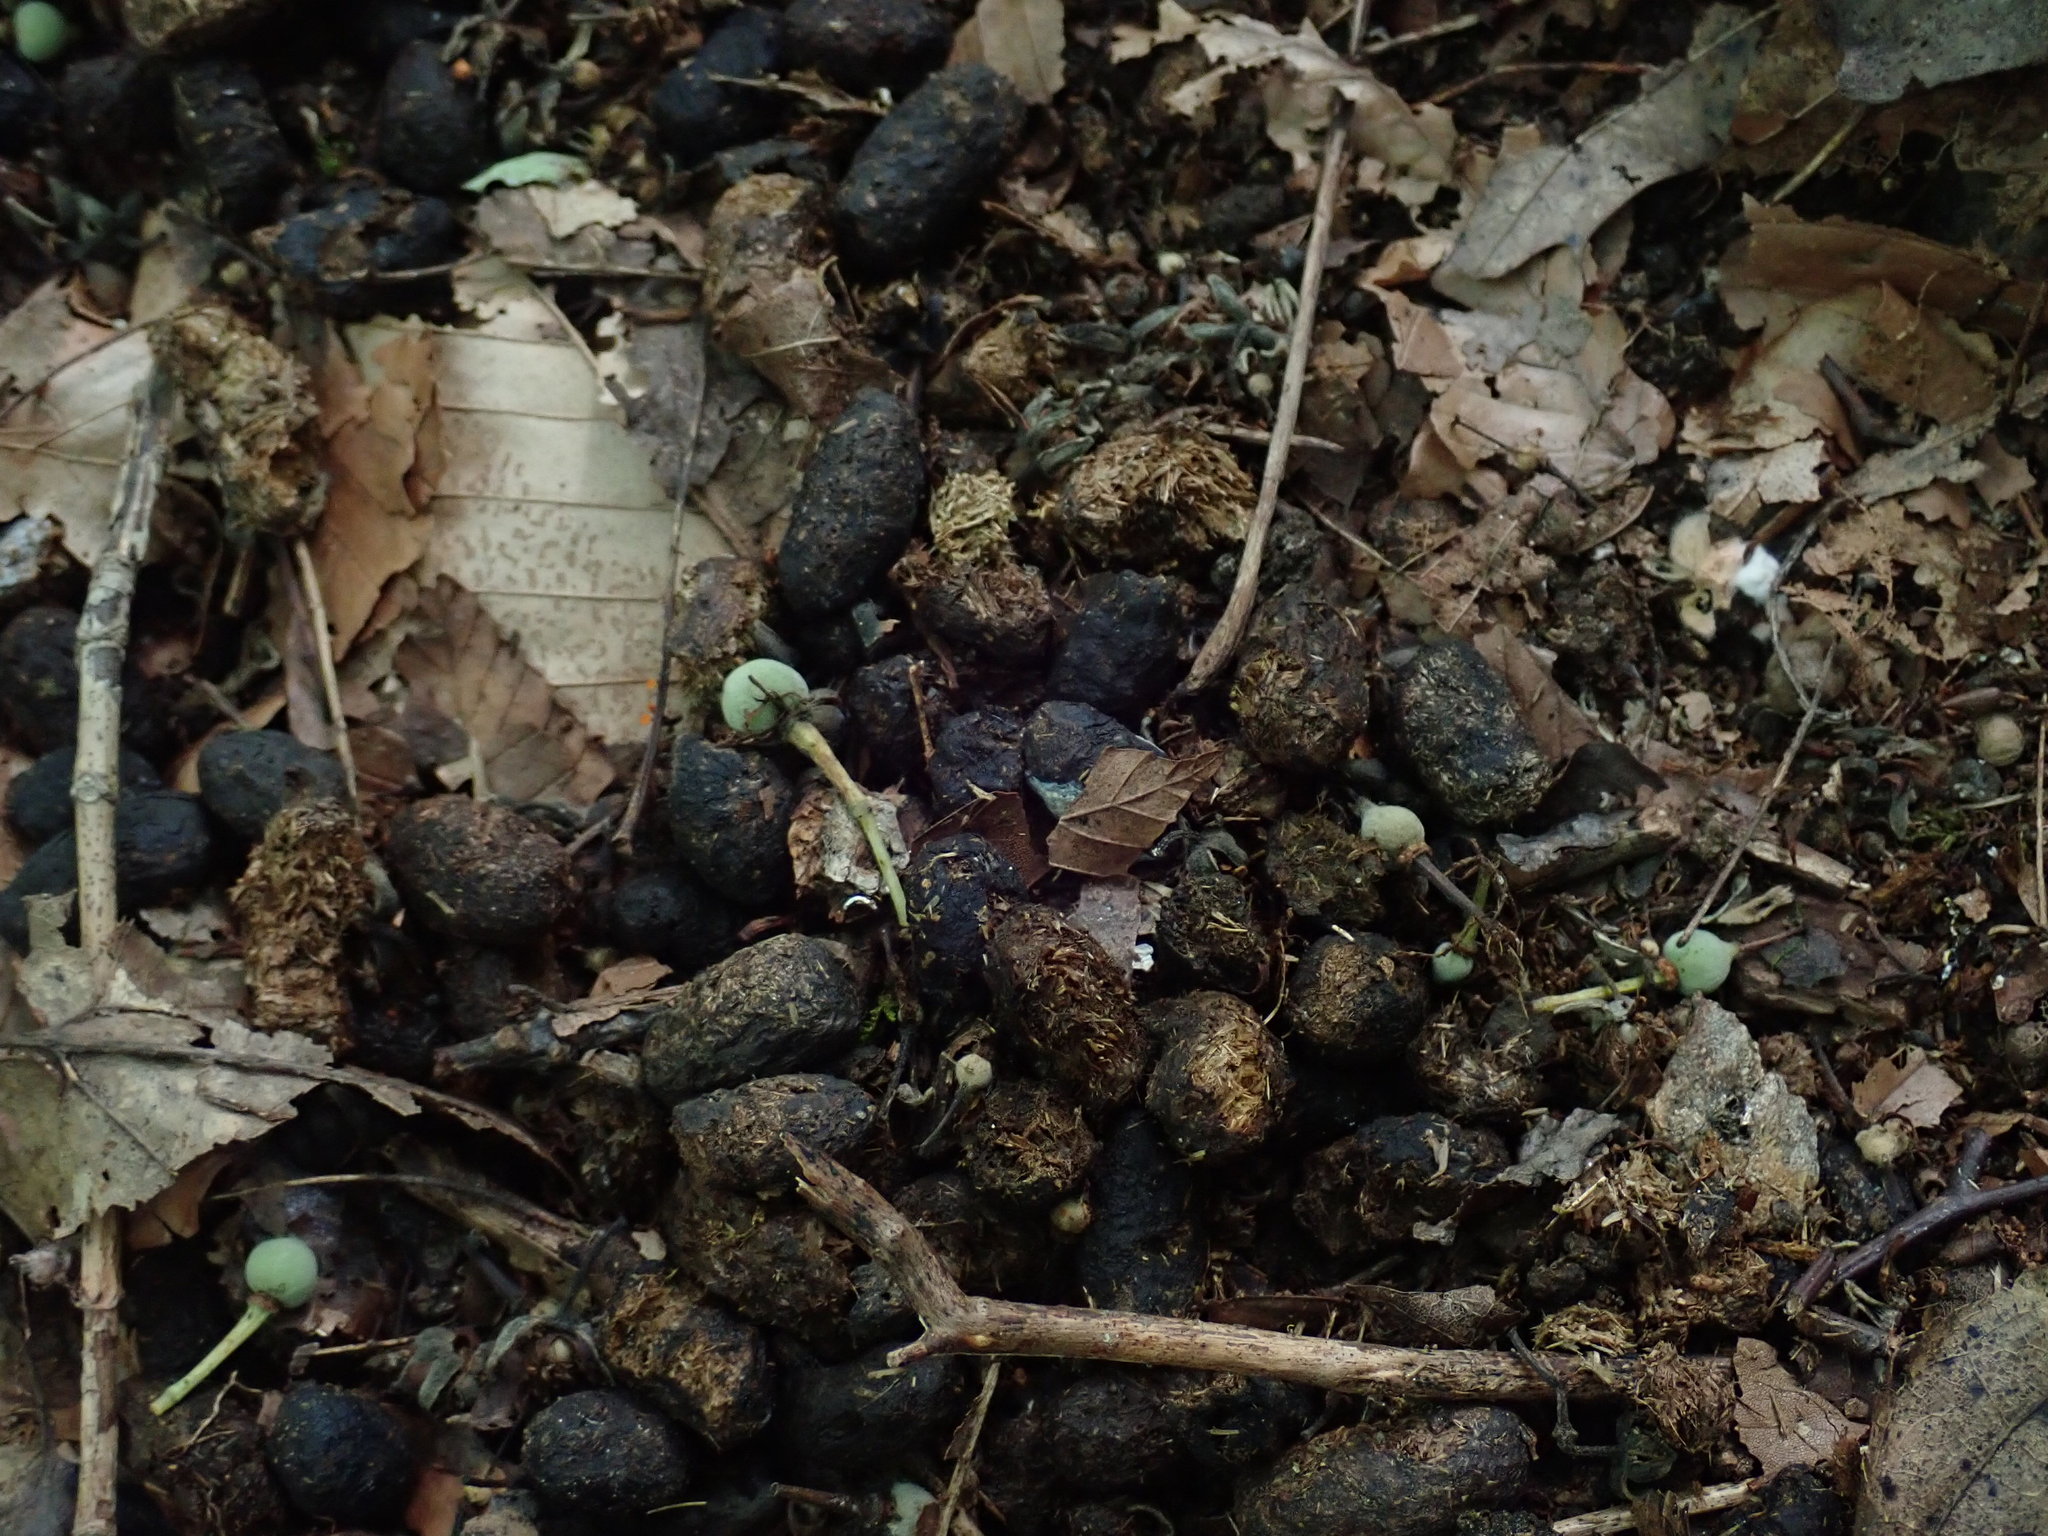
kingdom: Animalia
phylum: Chordata
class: Mammalia
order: Rodentia
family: Erethizontidae
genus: Erethizon
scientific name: Erethizon dorsatus
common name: North american porcupine
